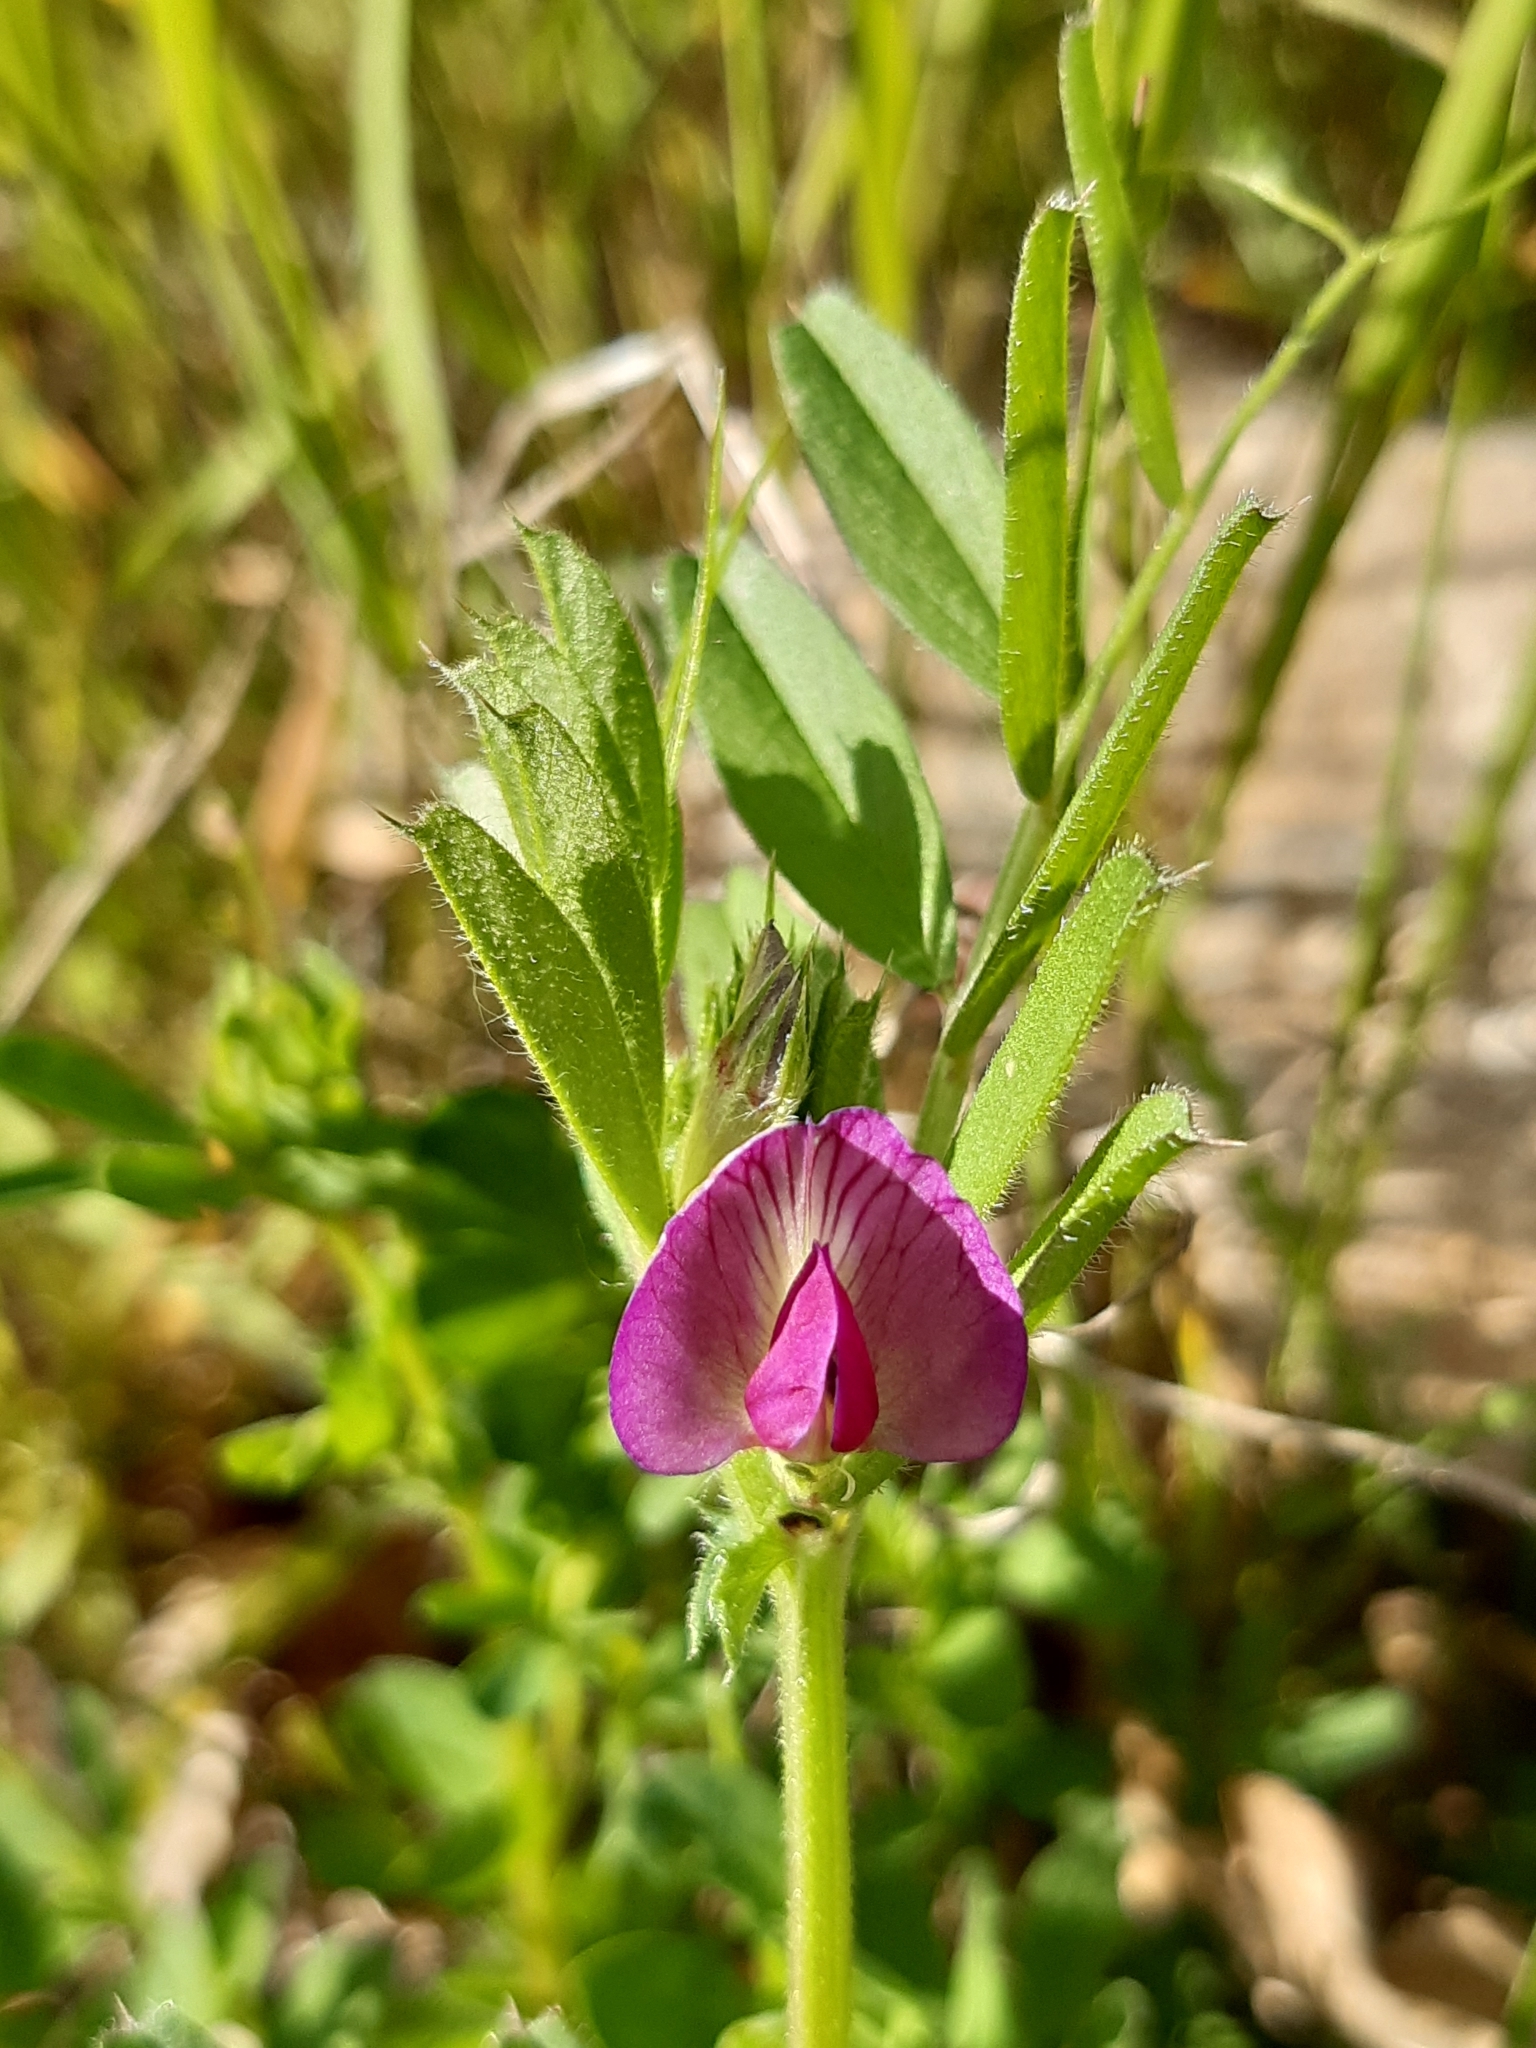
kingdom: Plantae
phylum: Tracheophyta
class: Magnoliopsida
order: Fabales
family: Fabaceae
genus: Vicia
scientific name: Vicia sativa
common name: Garden vetch
